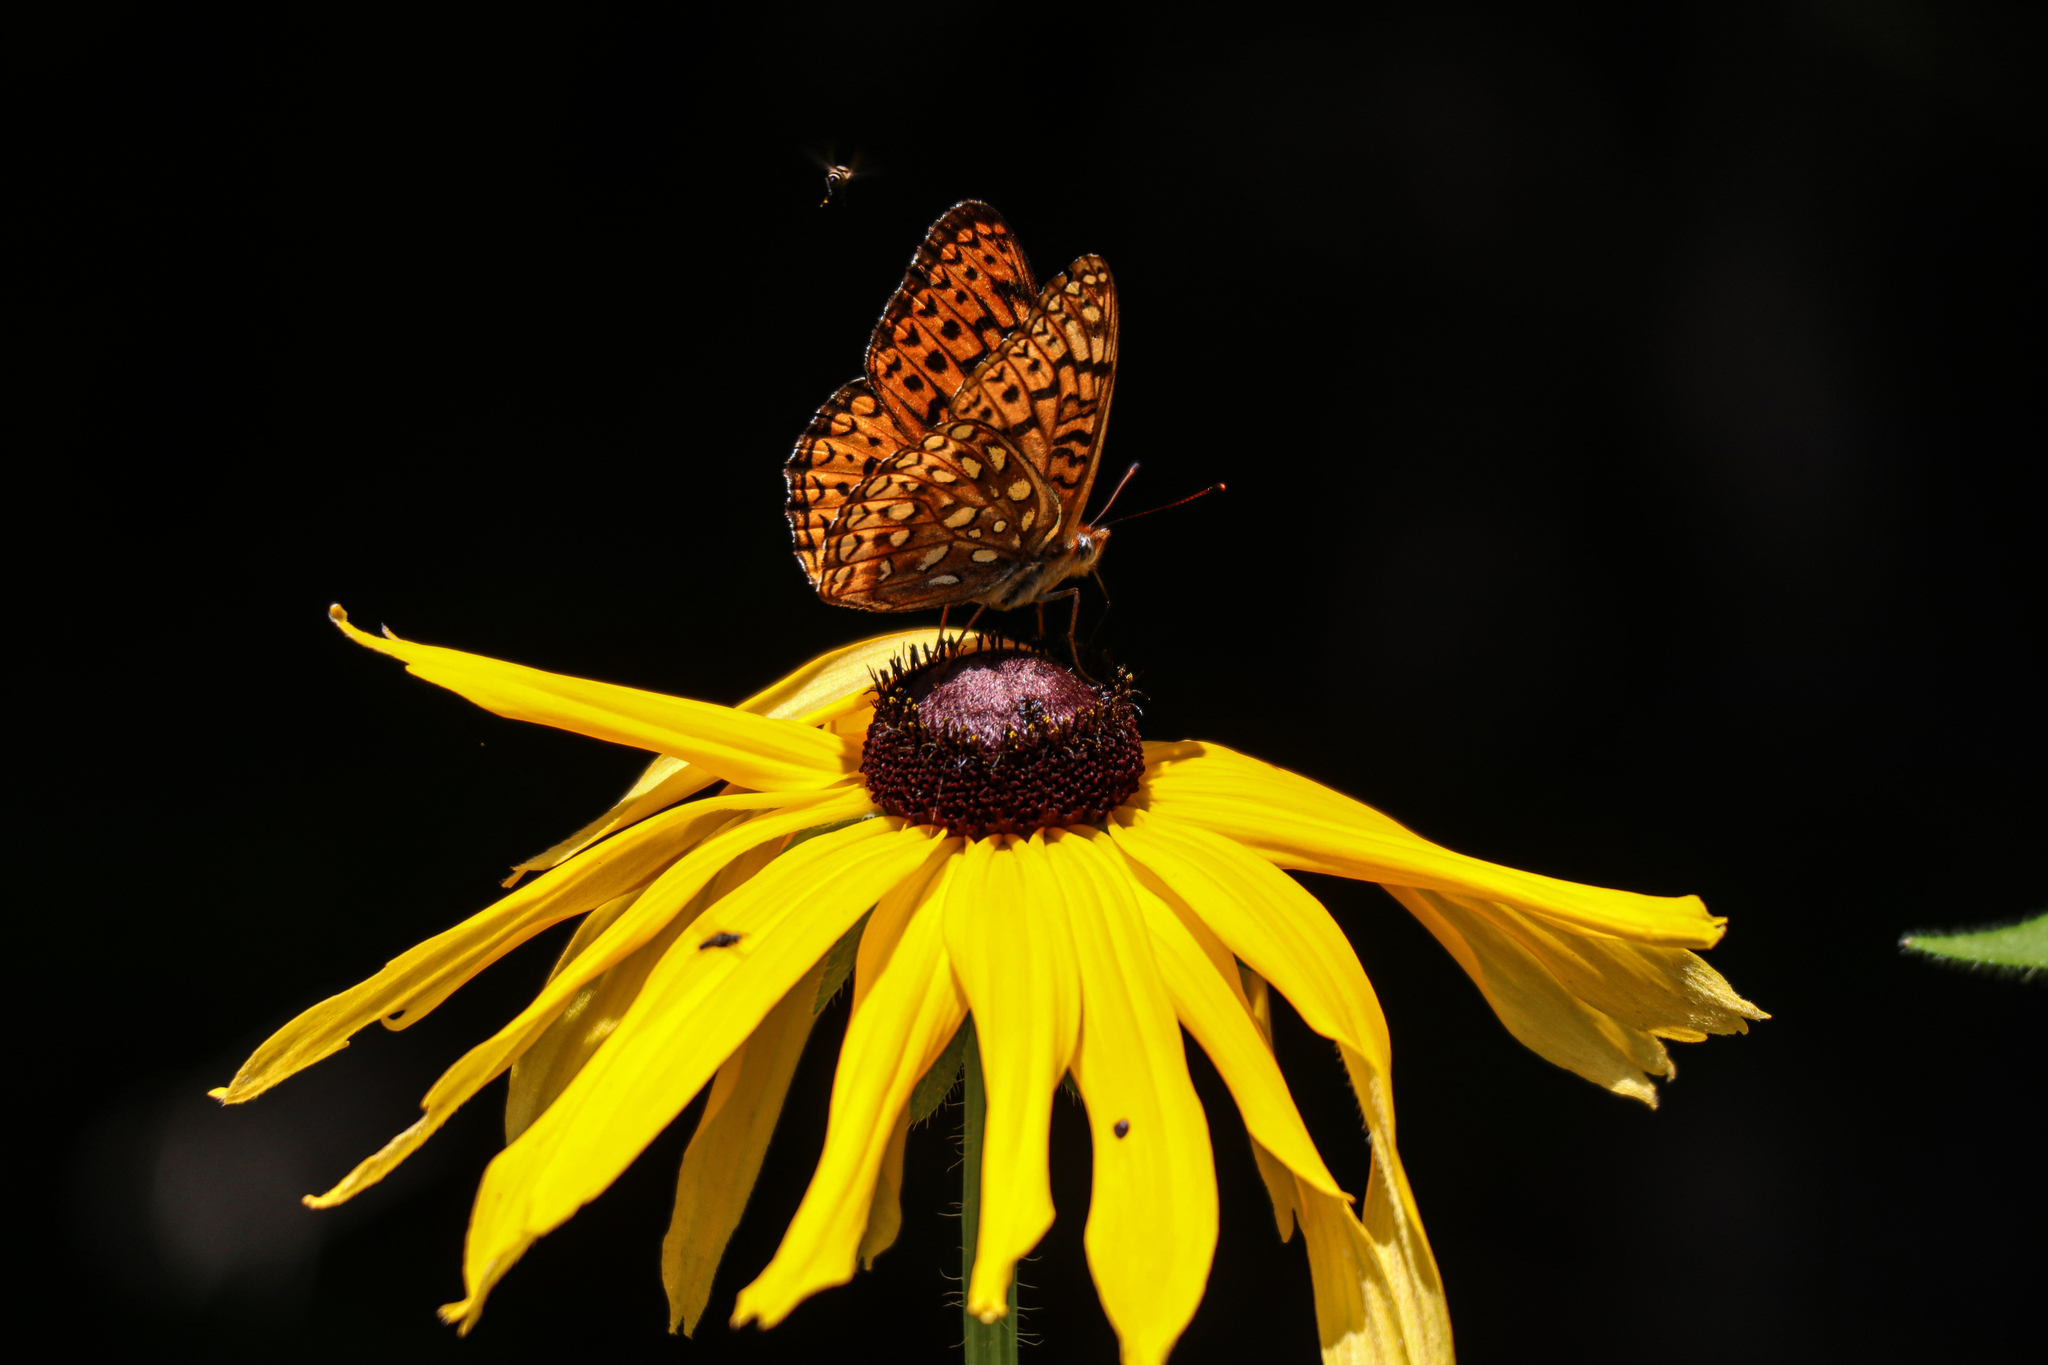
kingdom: Animalia
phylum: Arthropoda
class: Insecta
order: Lepidoptera
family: Nymphalidae
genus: Speyeria
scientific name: Speyeria atlantis
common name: Atlantis fritillary
